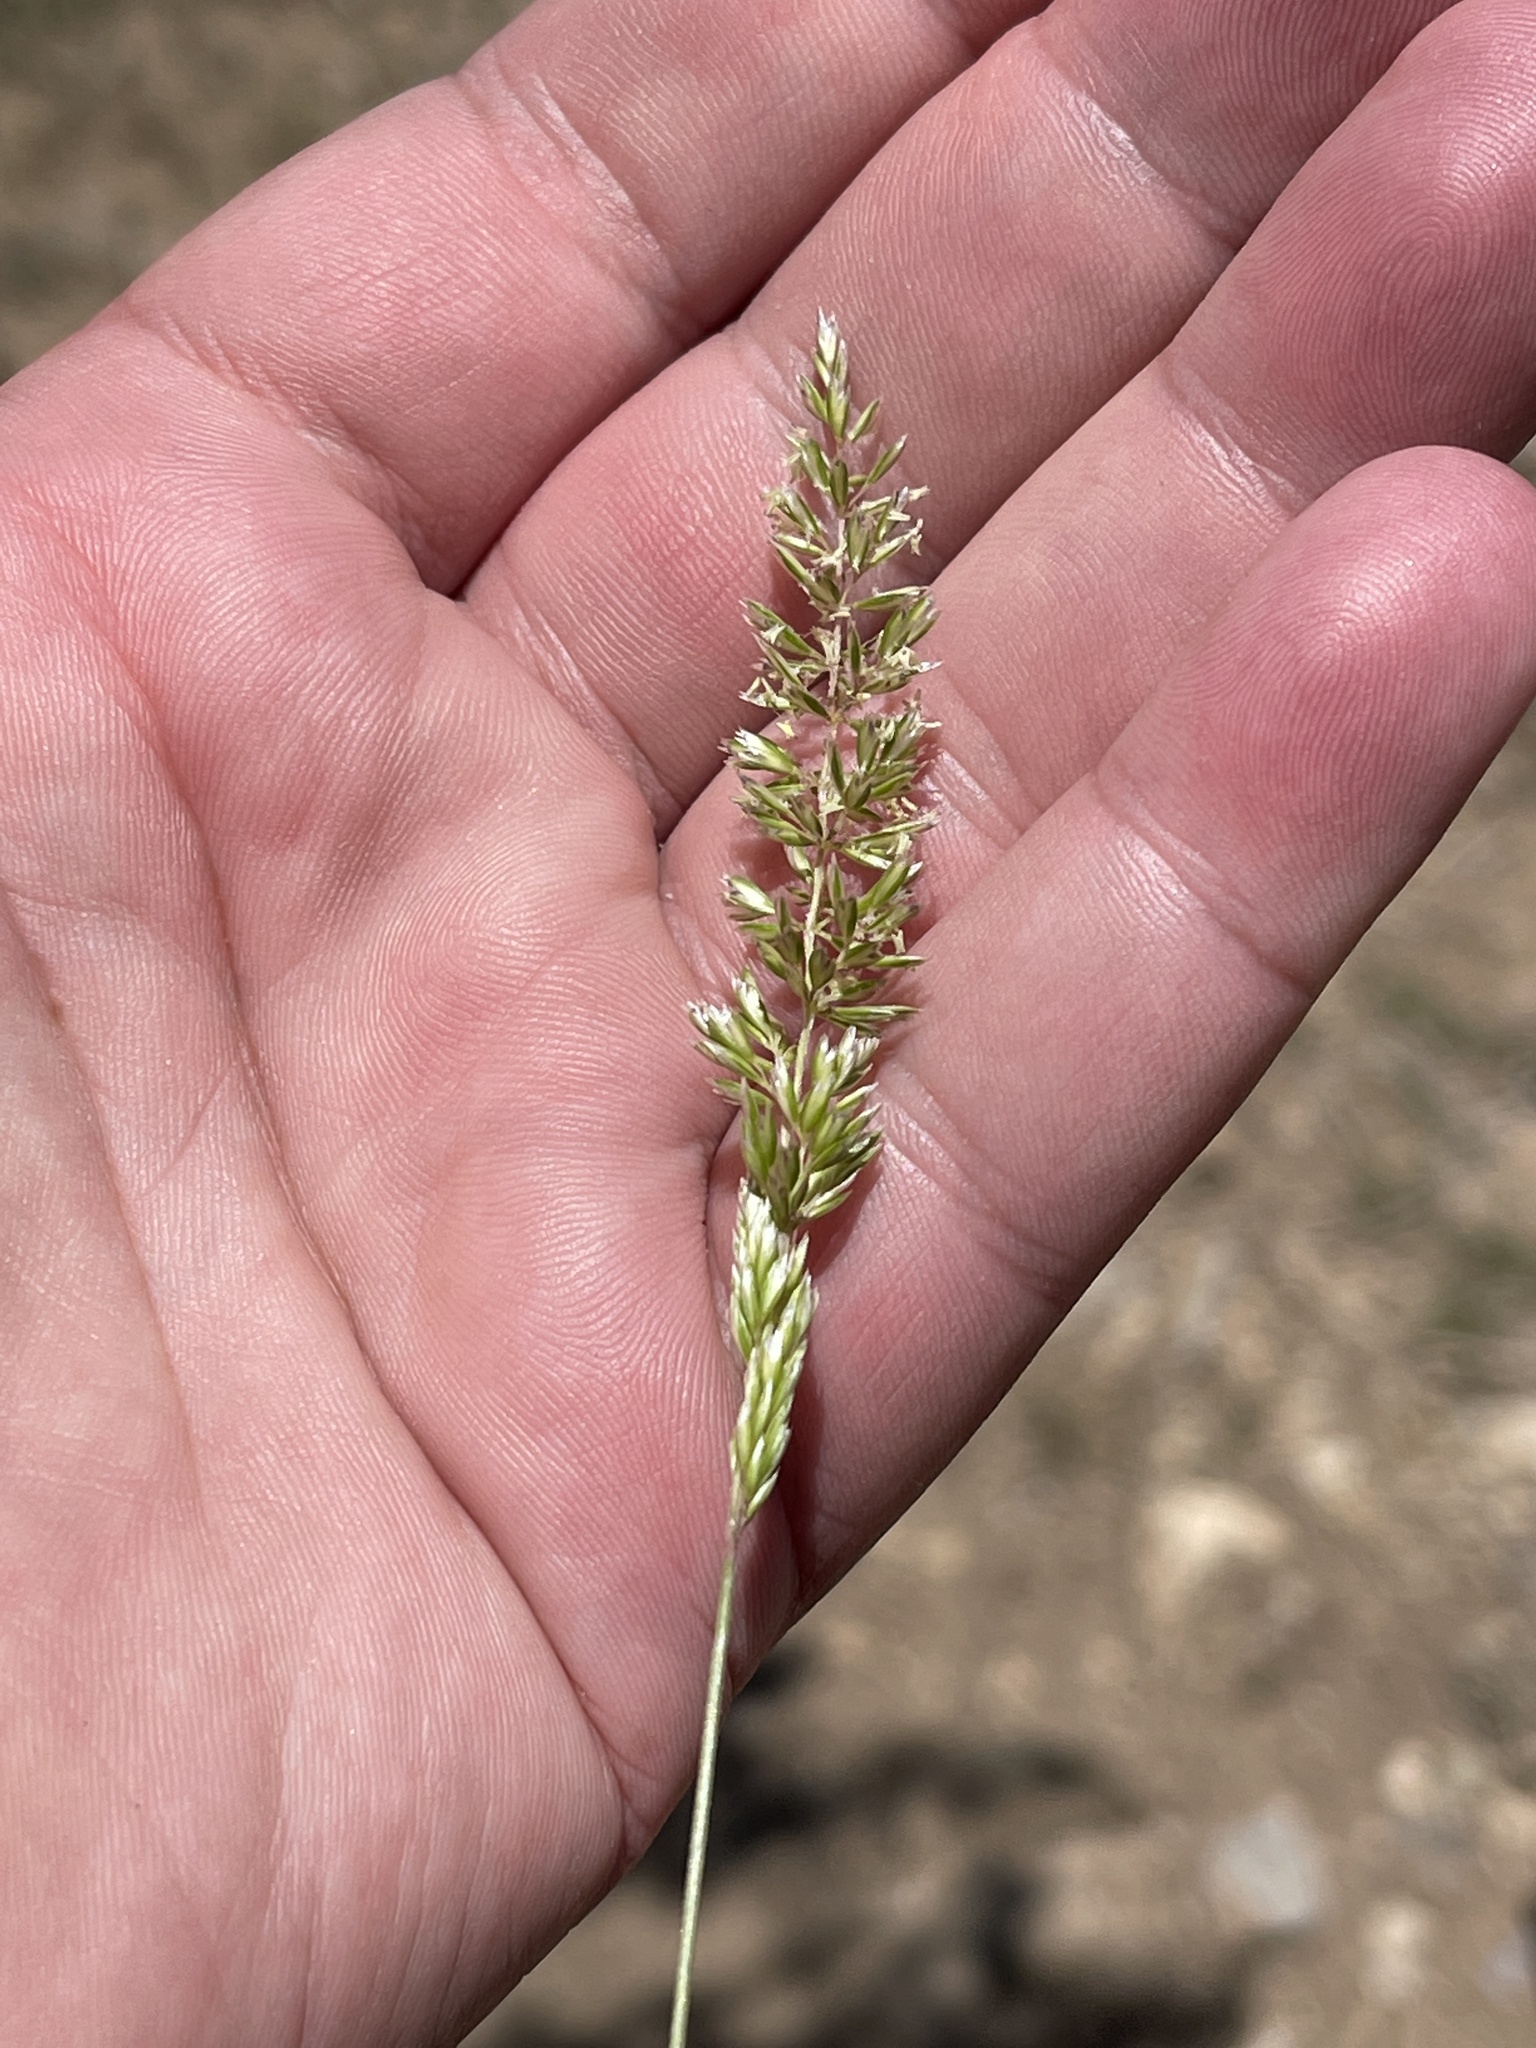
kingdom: Plantae
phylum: Tracheophyta
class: Liliopsida
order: Poales
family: Poaceae
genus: Koeleria
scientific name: Koeleria macrantha
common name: Crested hair-grass
